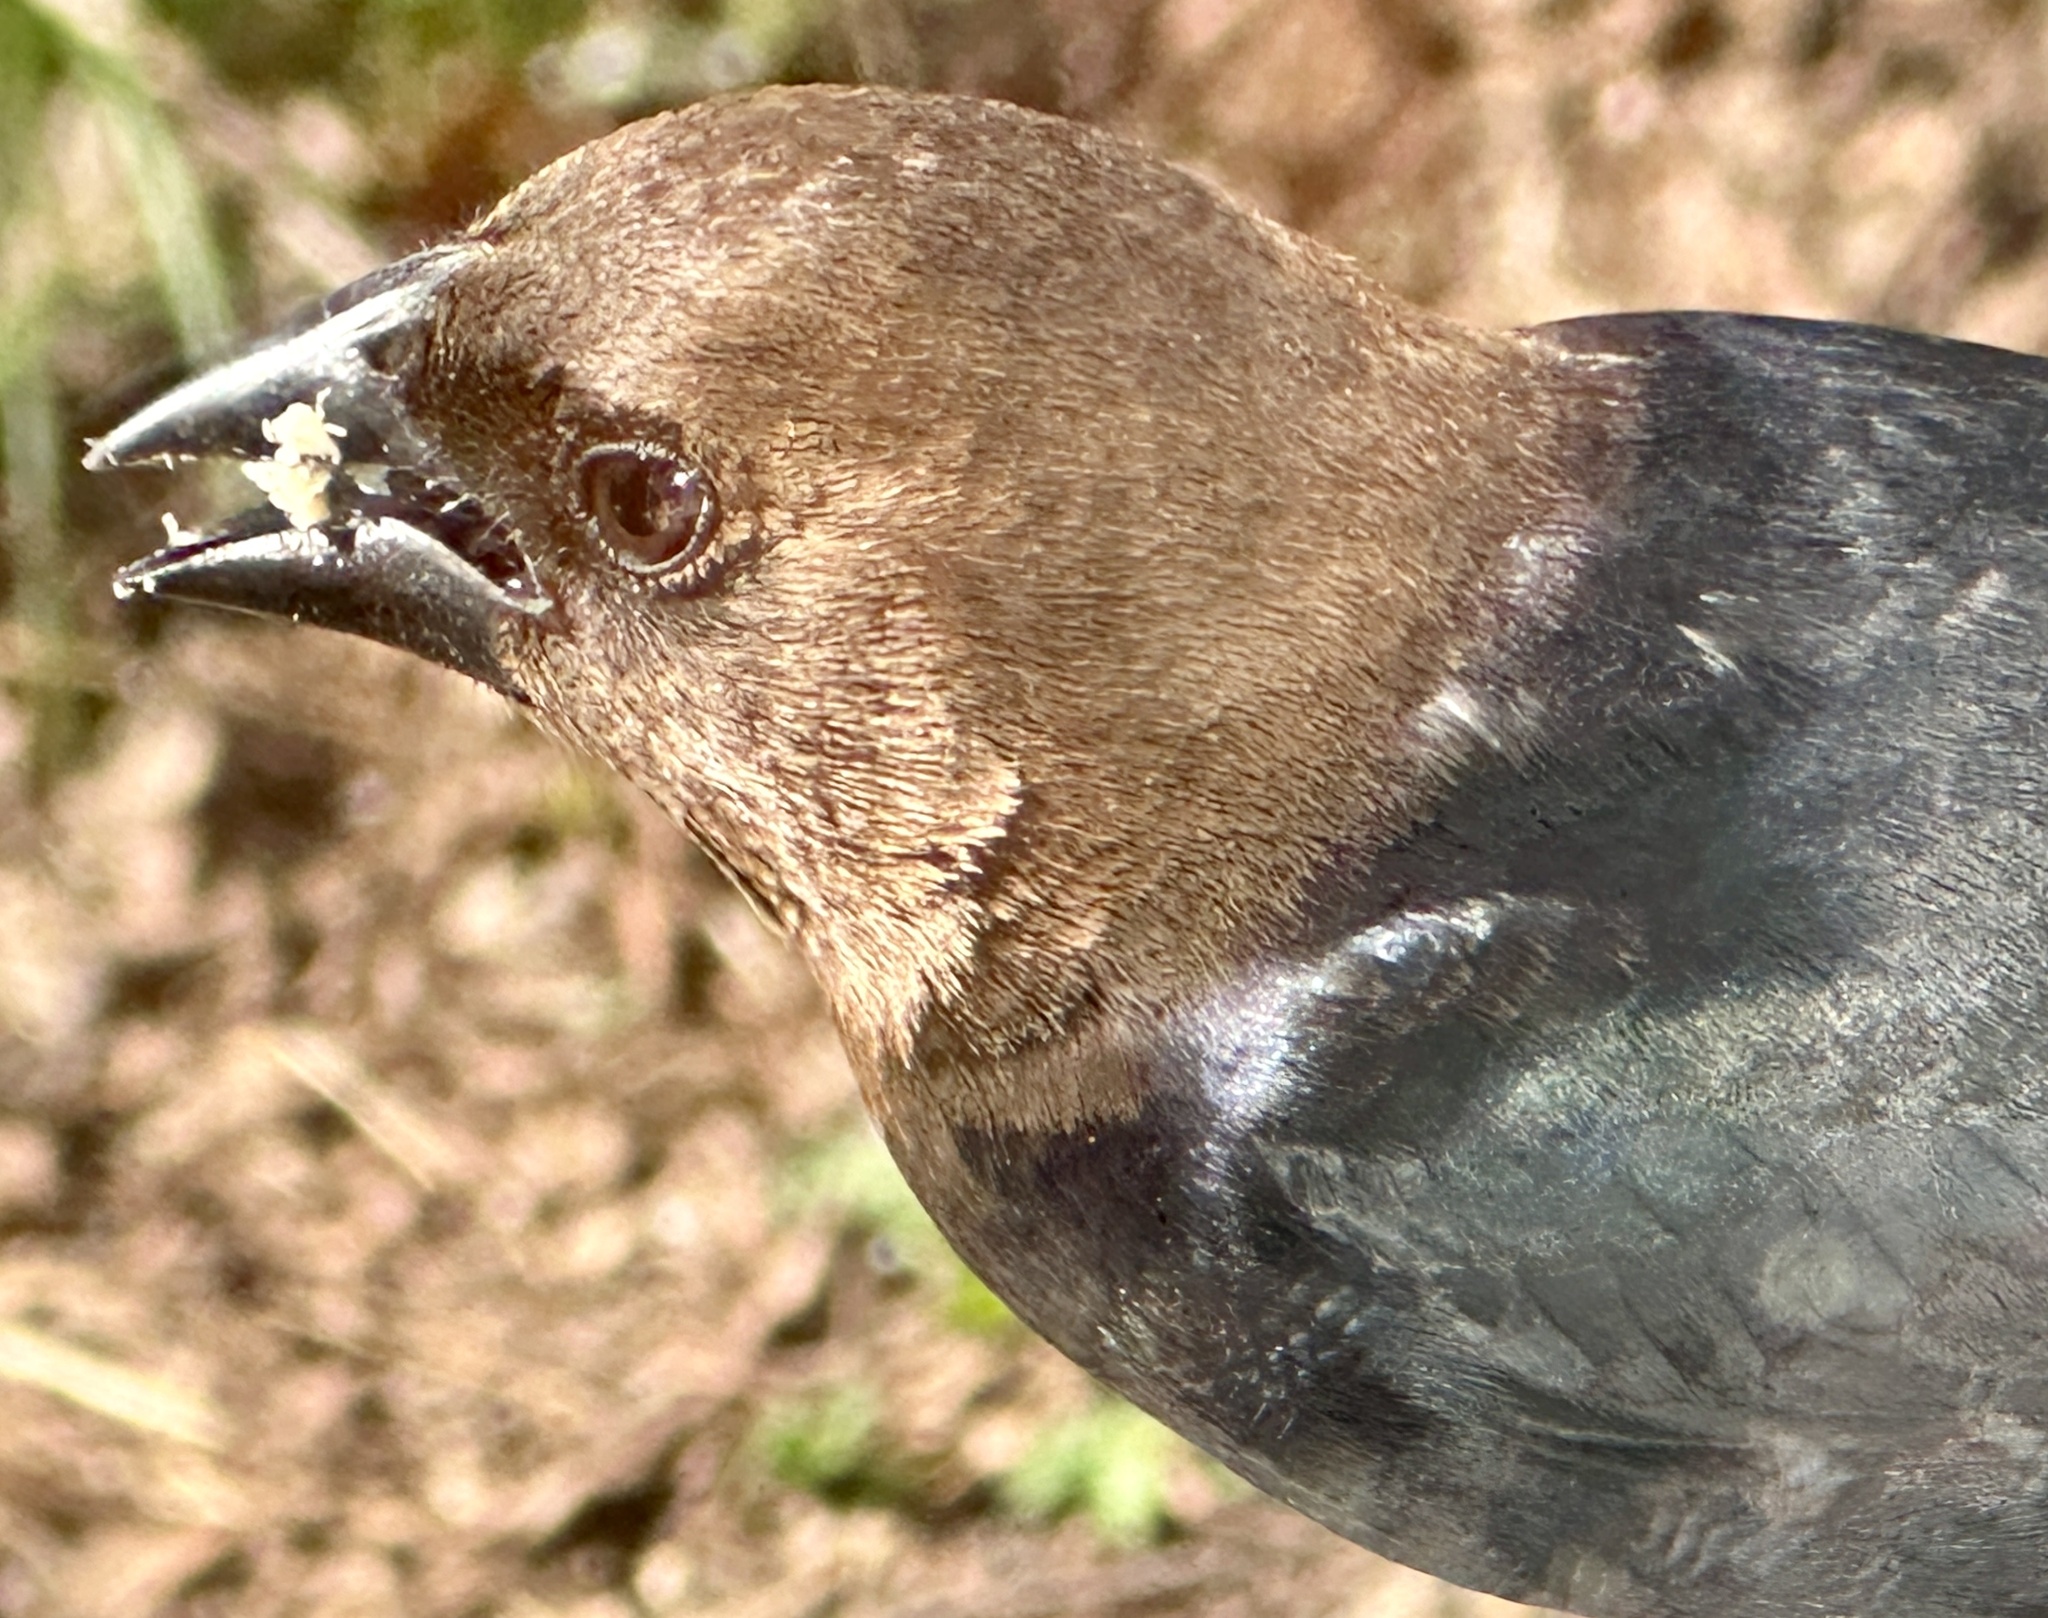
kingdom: Animalia
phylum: Chordata
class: Aves
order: Passeriformes
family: Icteridae
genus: Molothrus
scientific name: Molothrus ater
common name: Brown-headed cowbird
